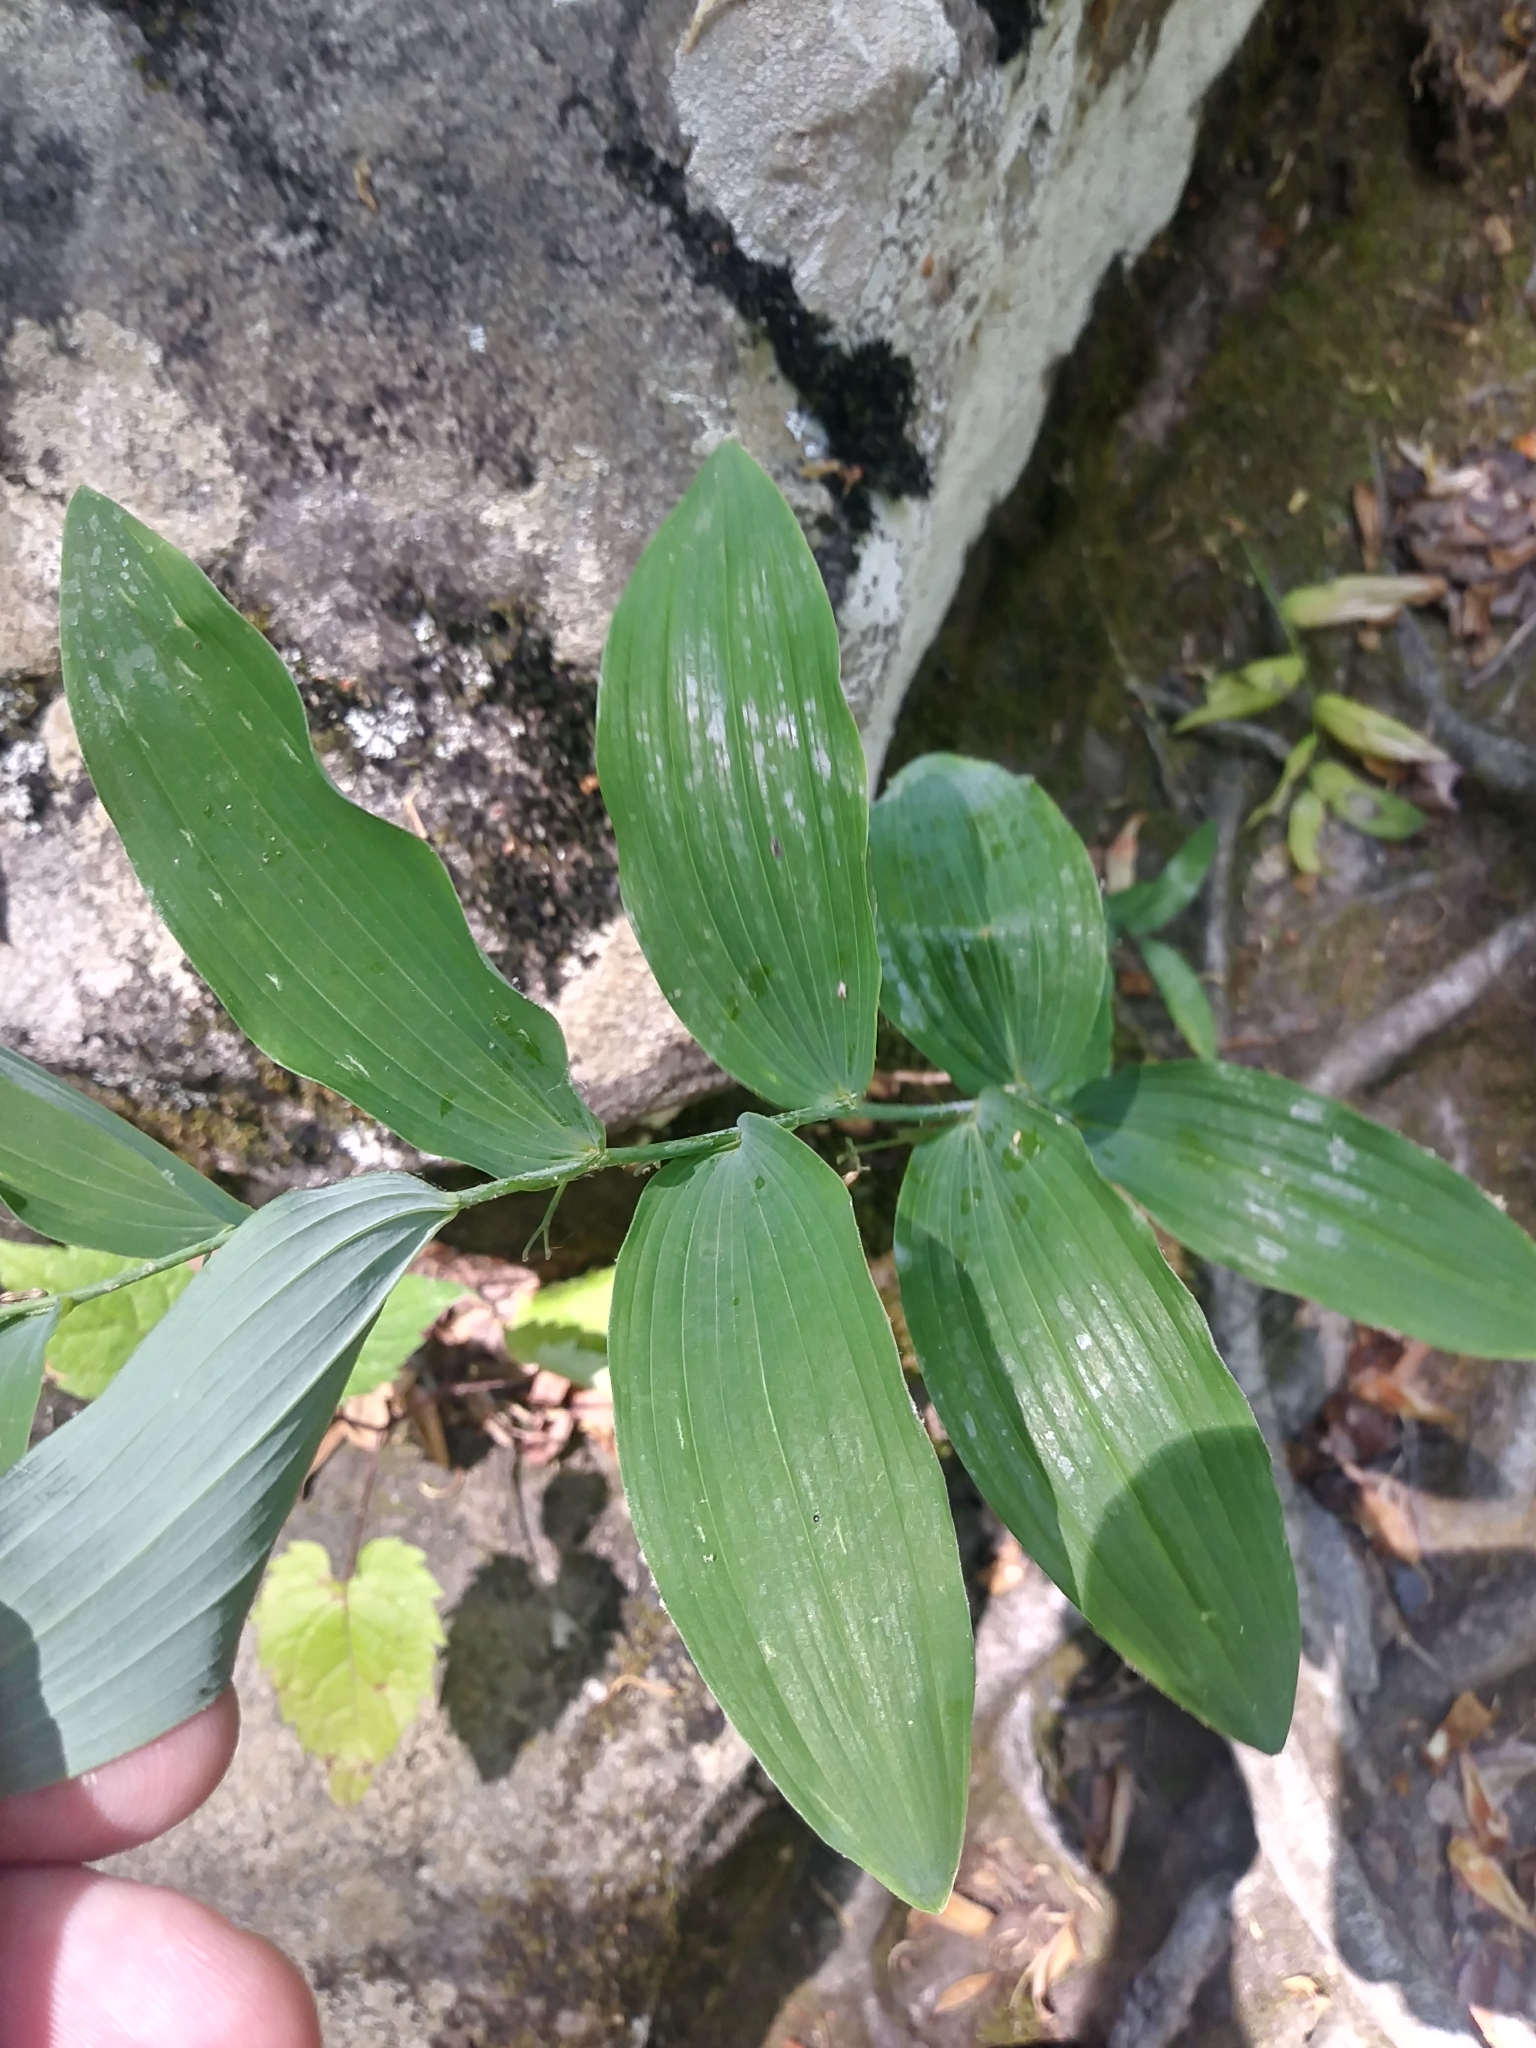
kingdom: Plantae
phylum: Tracheophyta
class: Liliopsida
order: Asparagales
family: Asparagaceae
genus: Polygonatum
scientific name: Polygonatum biflorum
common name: American solomon's-seal
